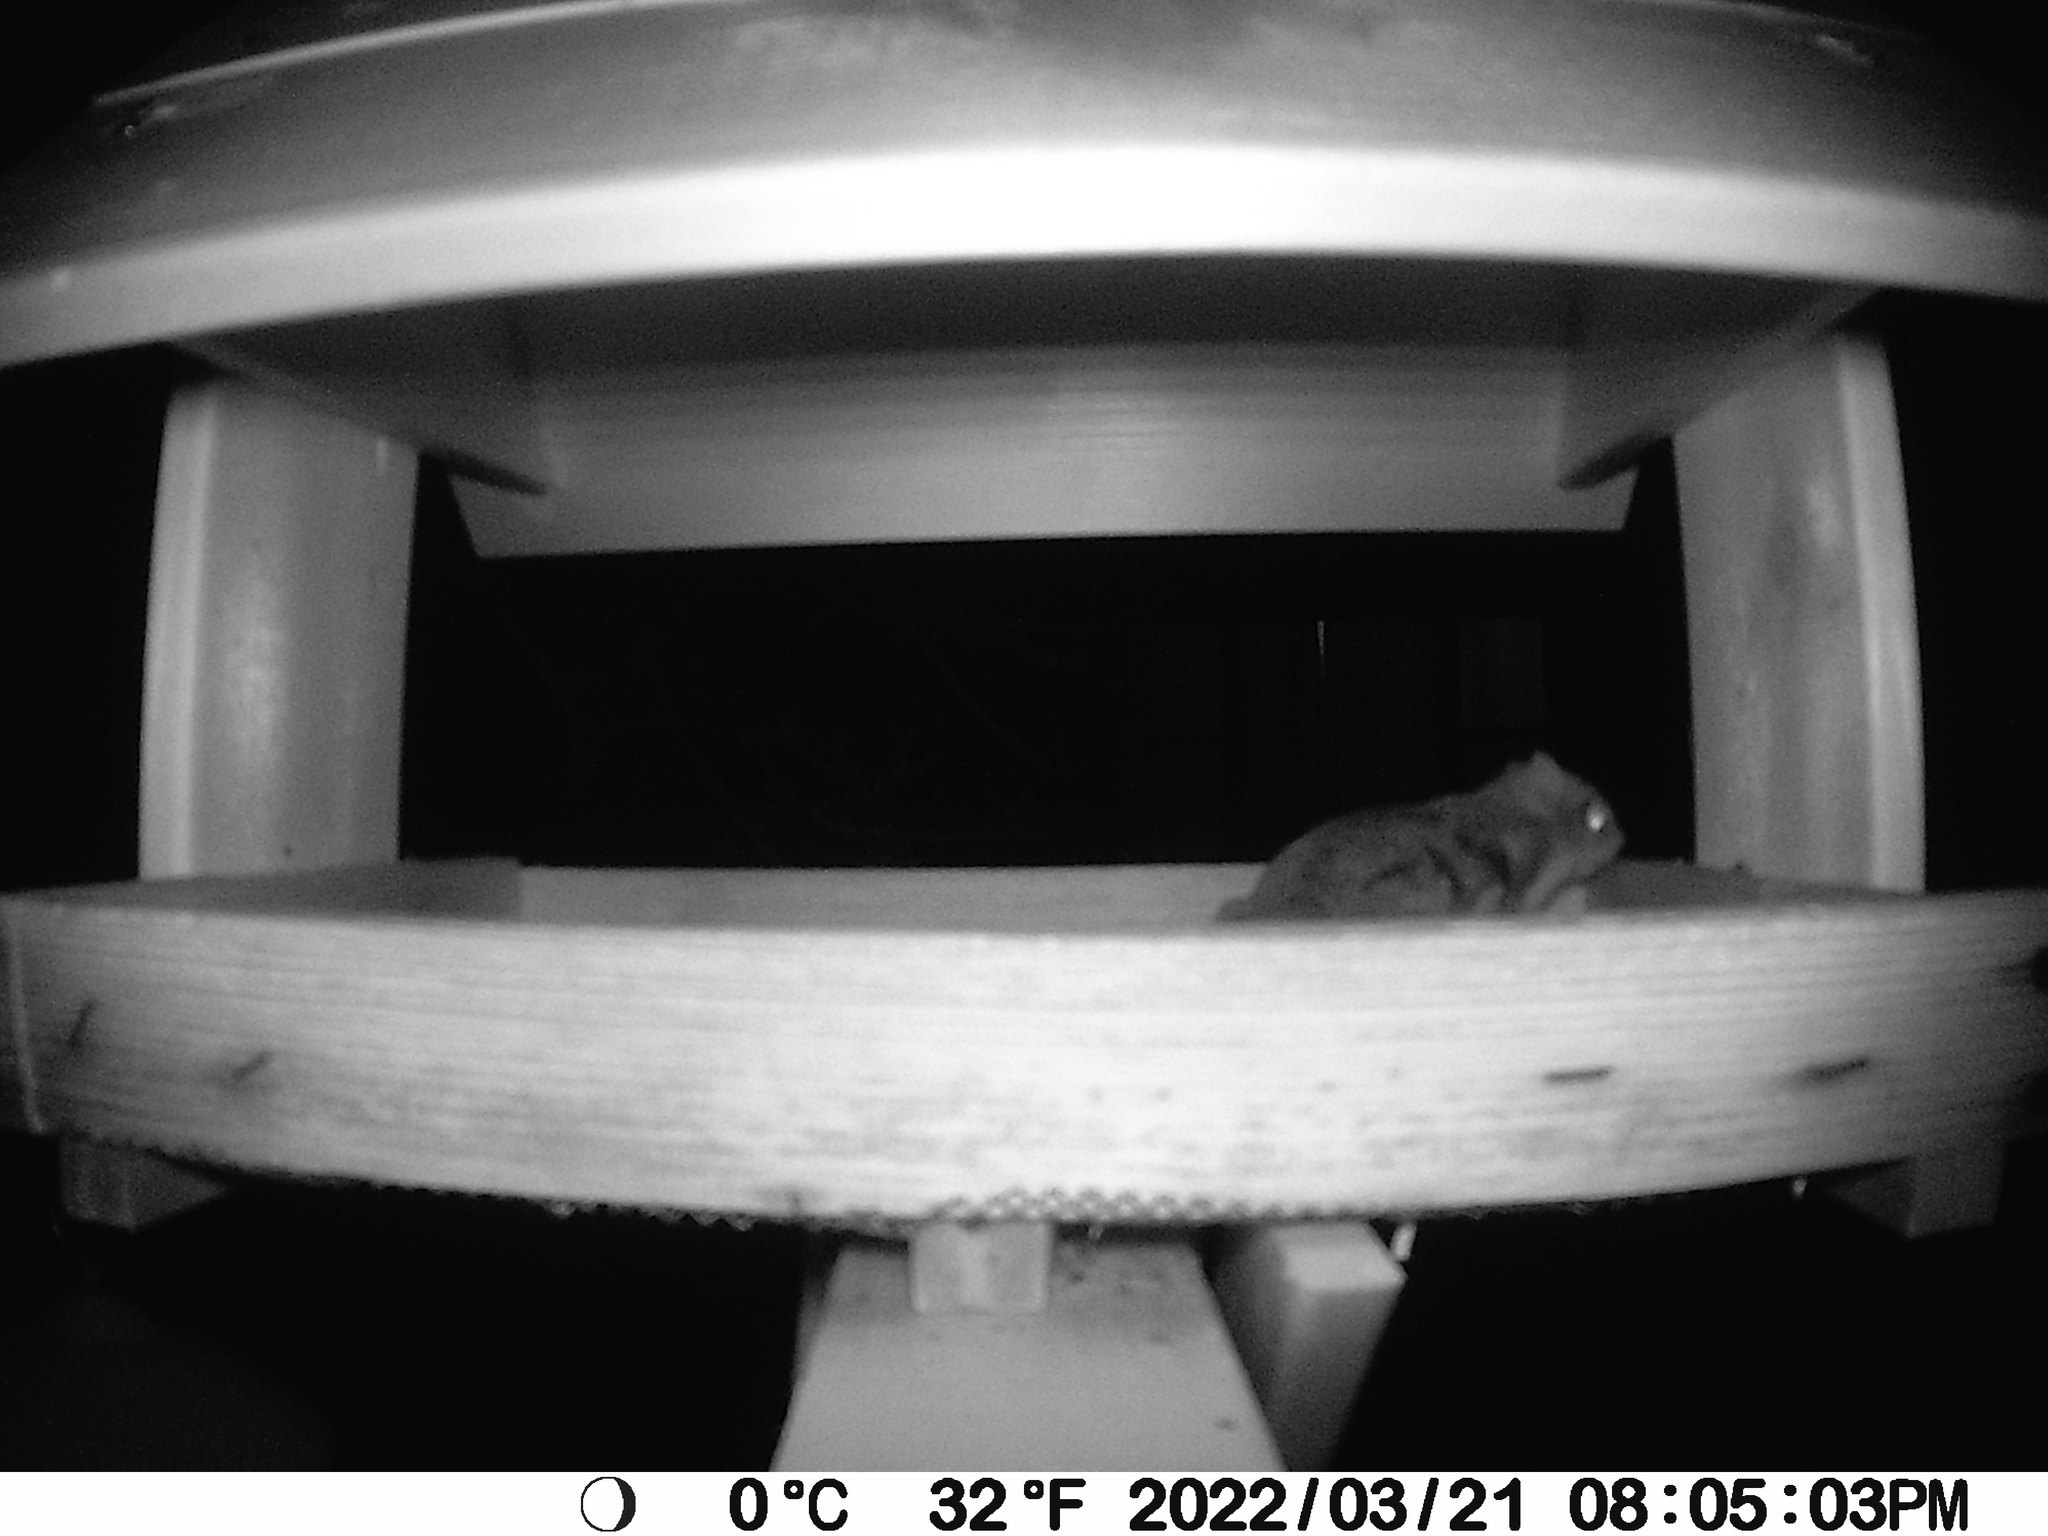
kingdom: Animalia
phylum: Chordata
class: Mammalia
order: Rodentia
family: Sciuridae
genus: Glaucomys
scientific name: Glaucomys sabrinus
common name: Northern flying squirrel
